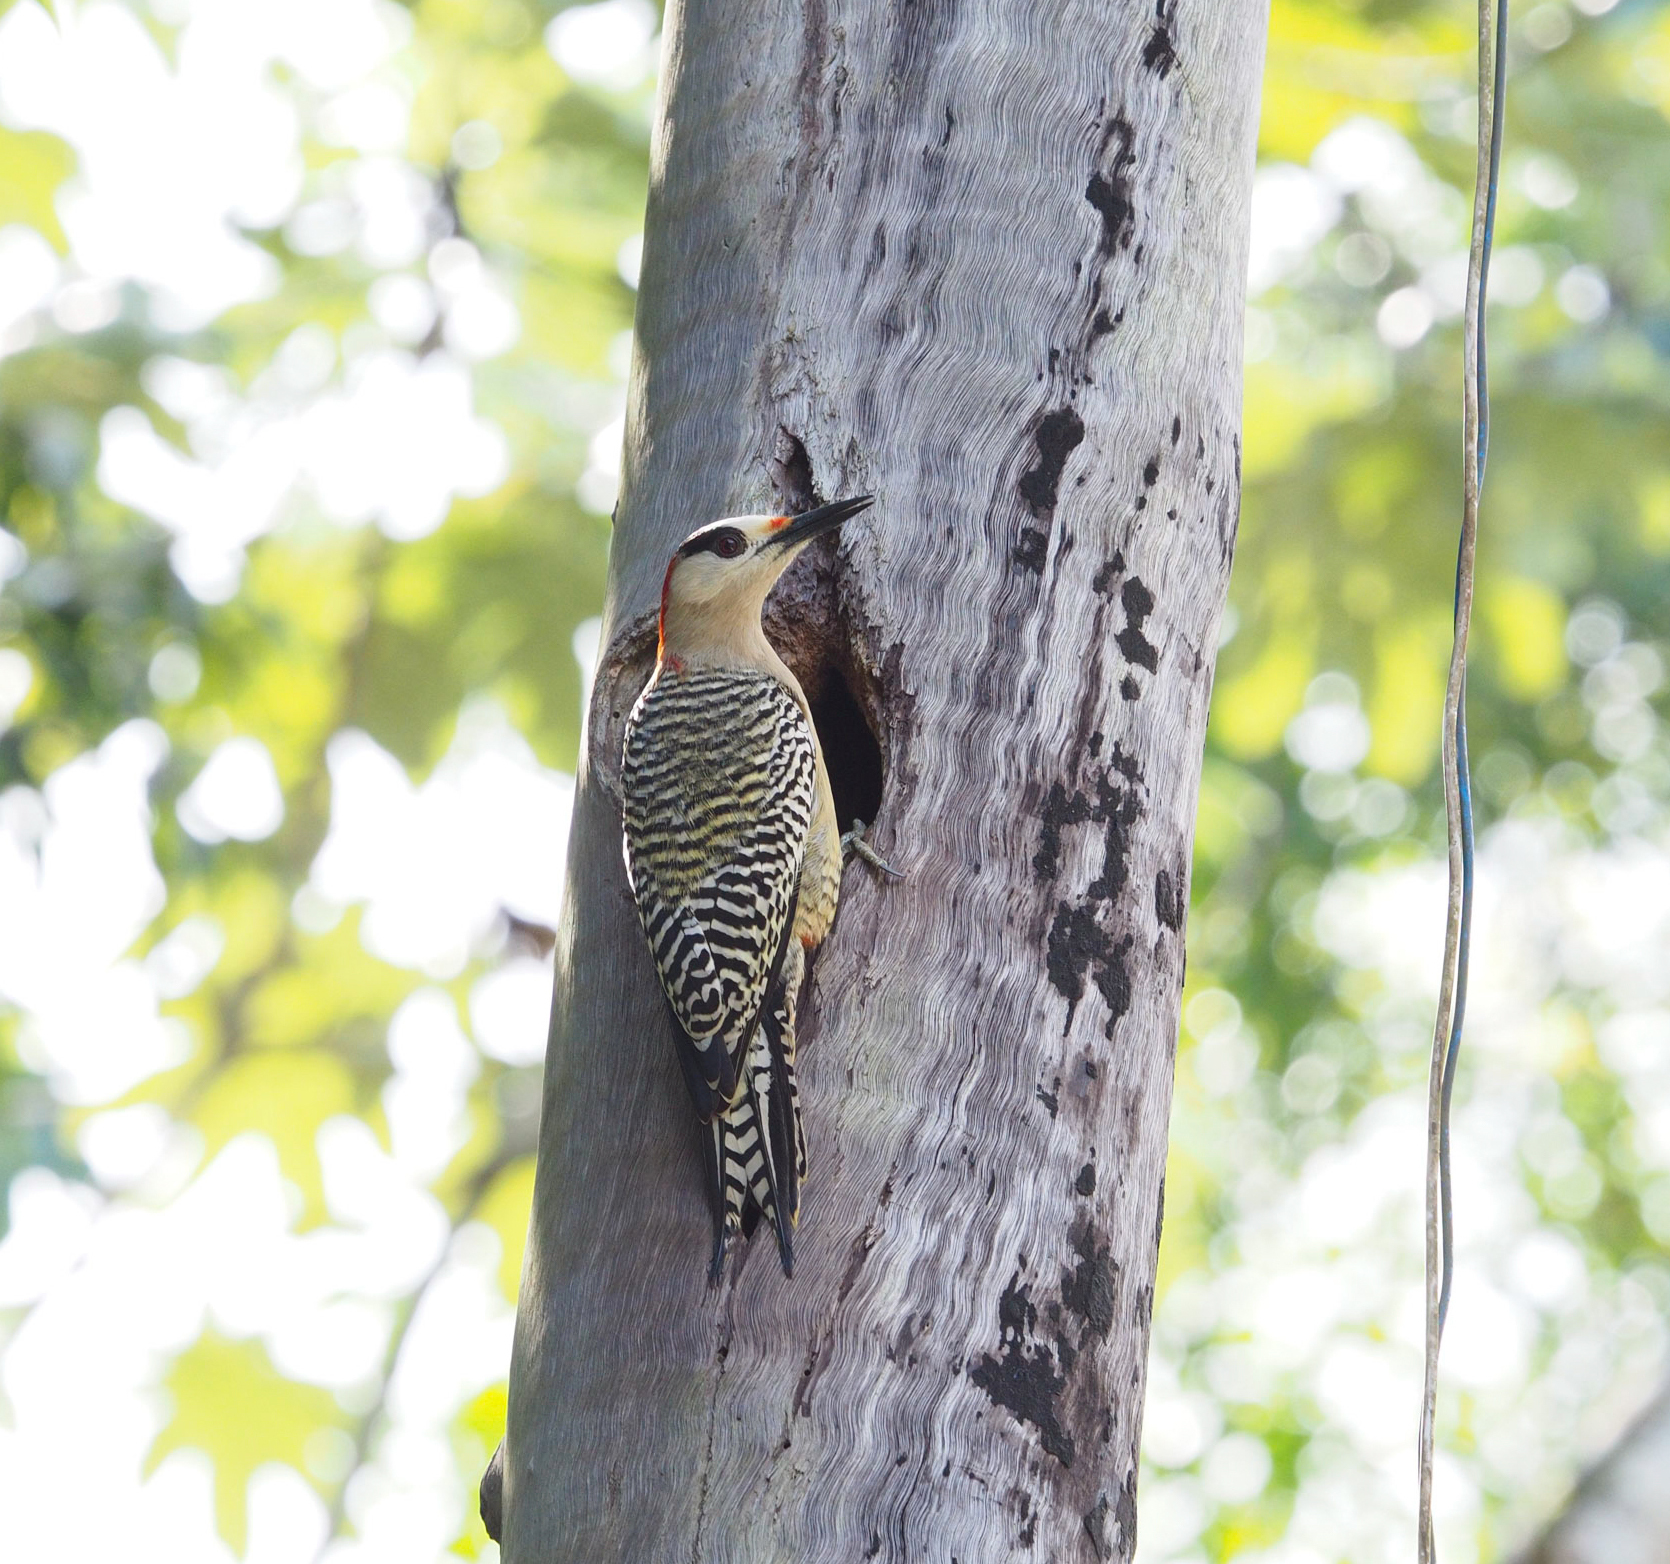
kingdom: Animalia
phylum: Chordata
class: Aves
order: Piciformes
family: Picidae
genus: Melanerpes
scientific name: Melanerpes superciliaris
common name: West indian woodpecker
